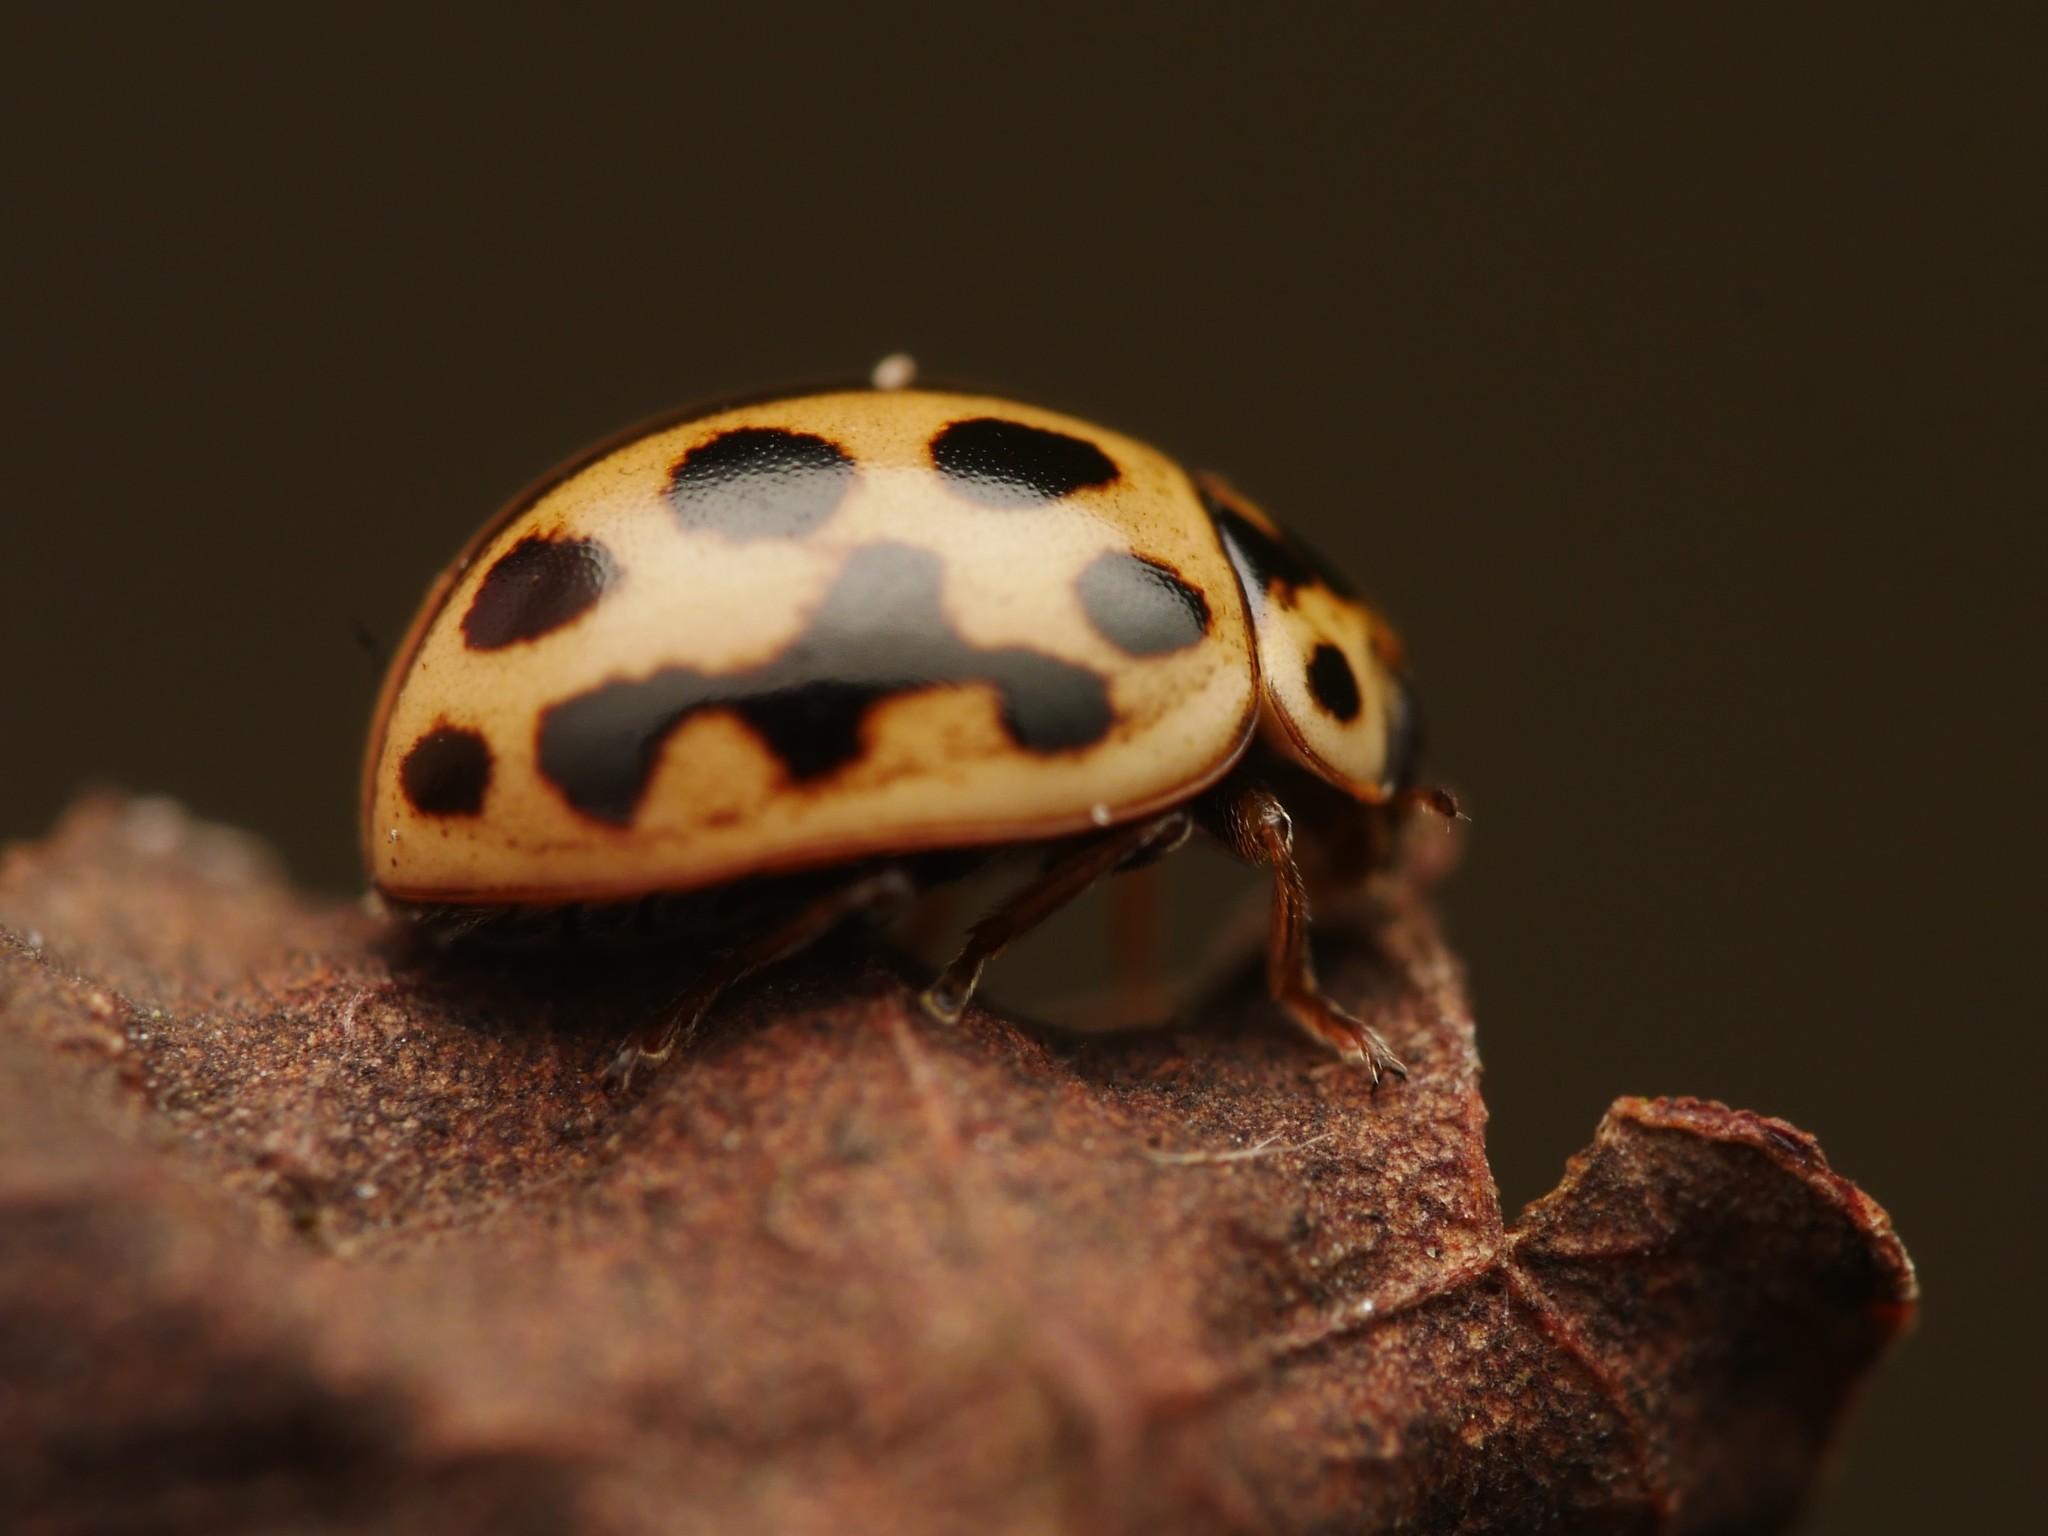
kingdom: Animalia
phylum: Arthropoda
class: Insecta
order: Coleoptera
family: Coccinellidae
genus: Tytthaspis
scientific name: Tytthaspis sedecimpunctata
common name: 16-spot ladybird
